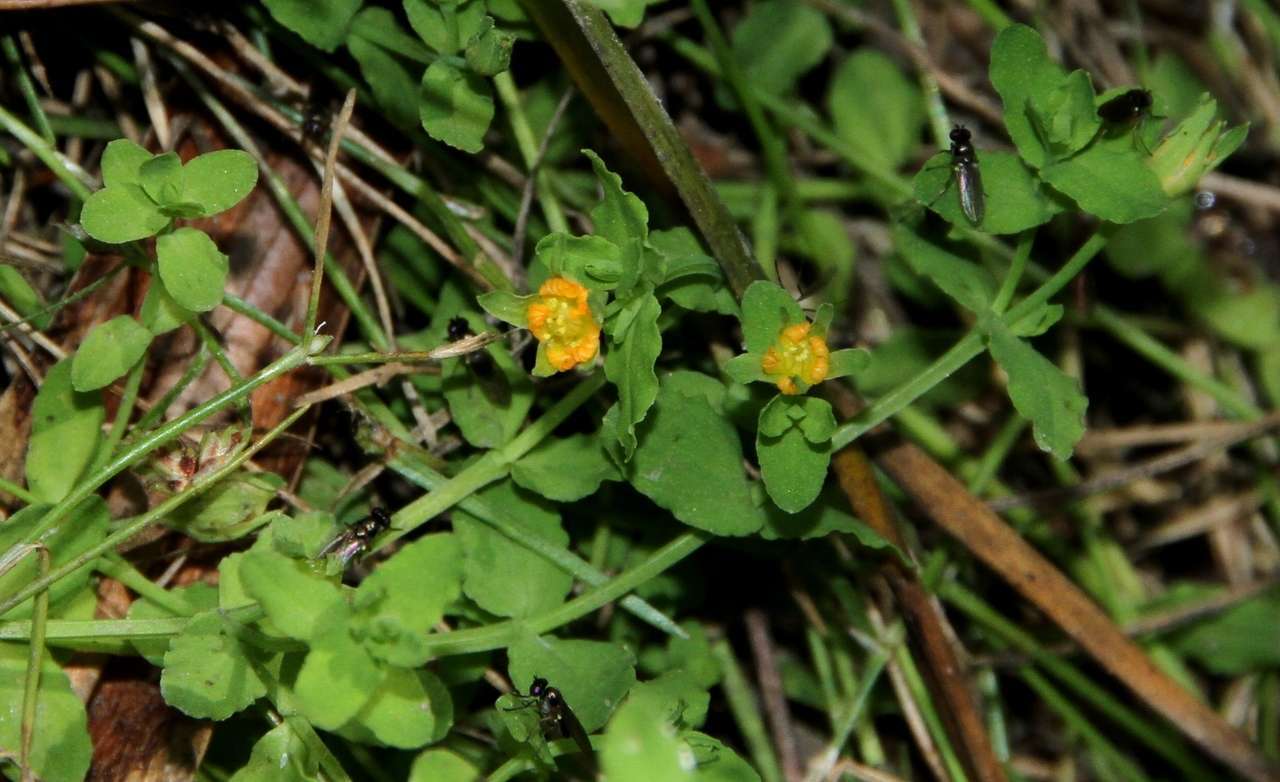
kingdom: Plantae
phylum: Tracheophyta
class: Magnoliopsida
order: Malpighiales
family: Hypericaceae
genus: Hypericum
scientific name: Hypericum japonicum
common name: Matted st. john's-wort
